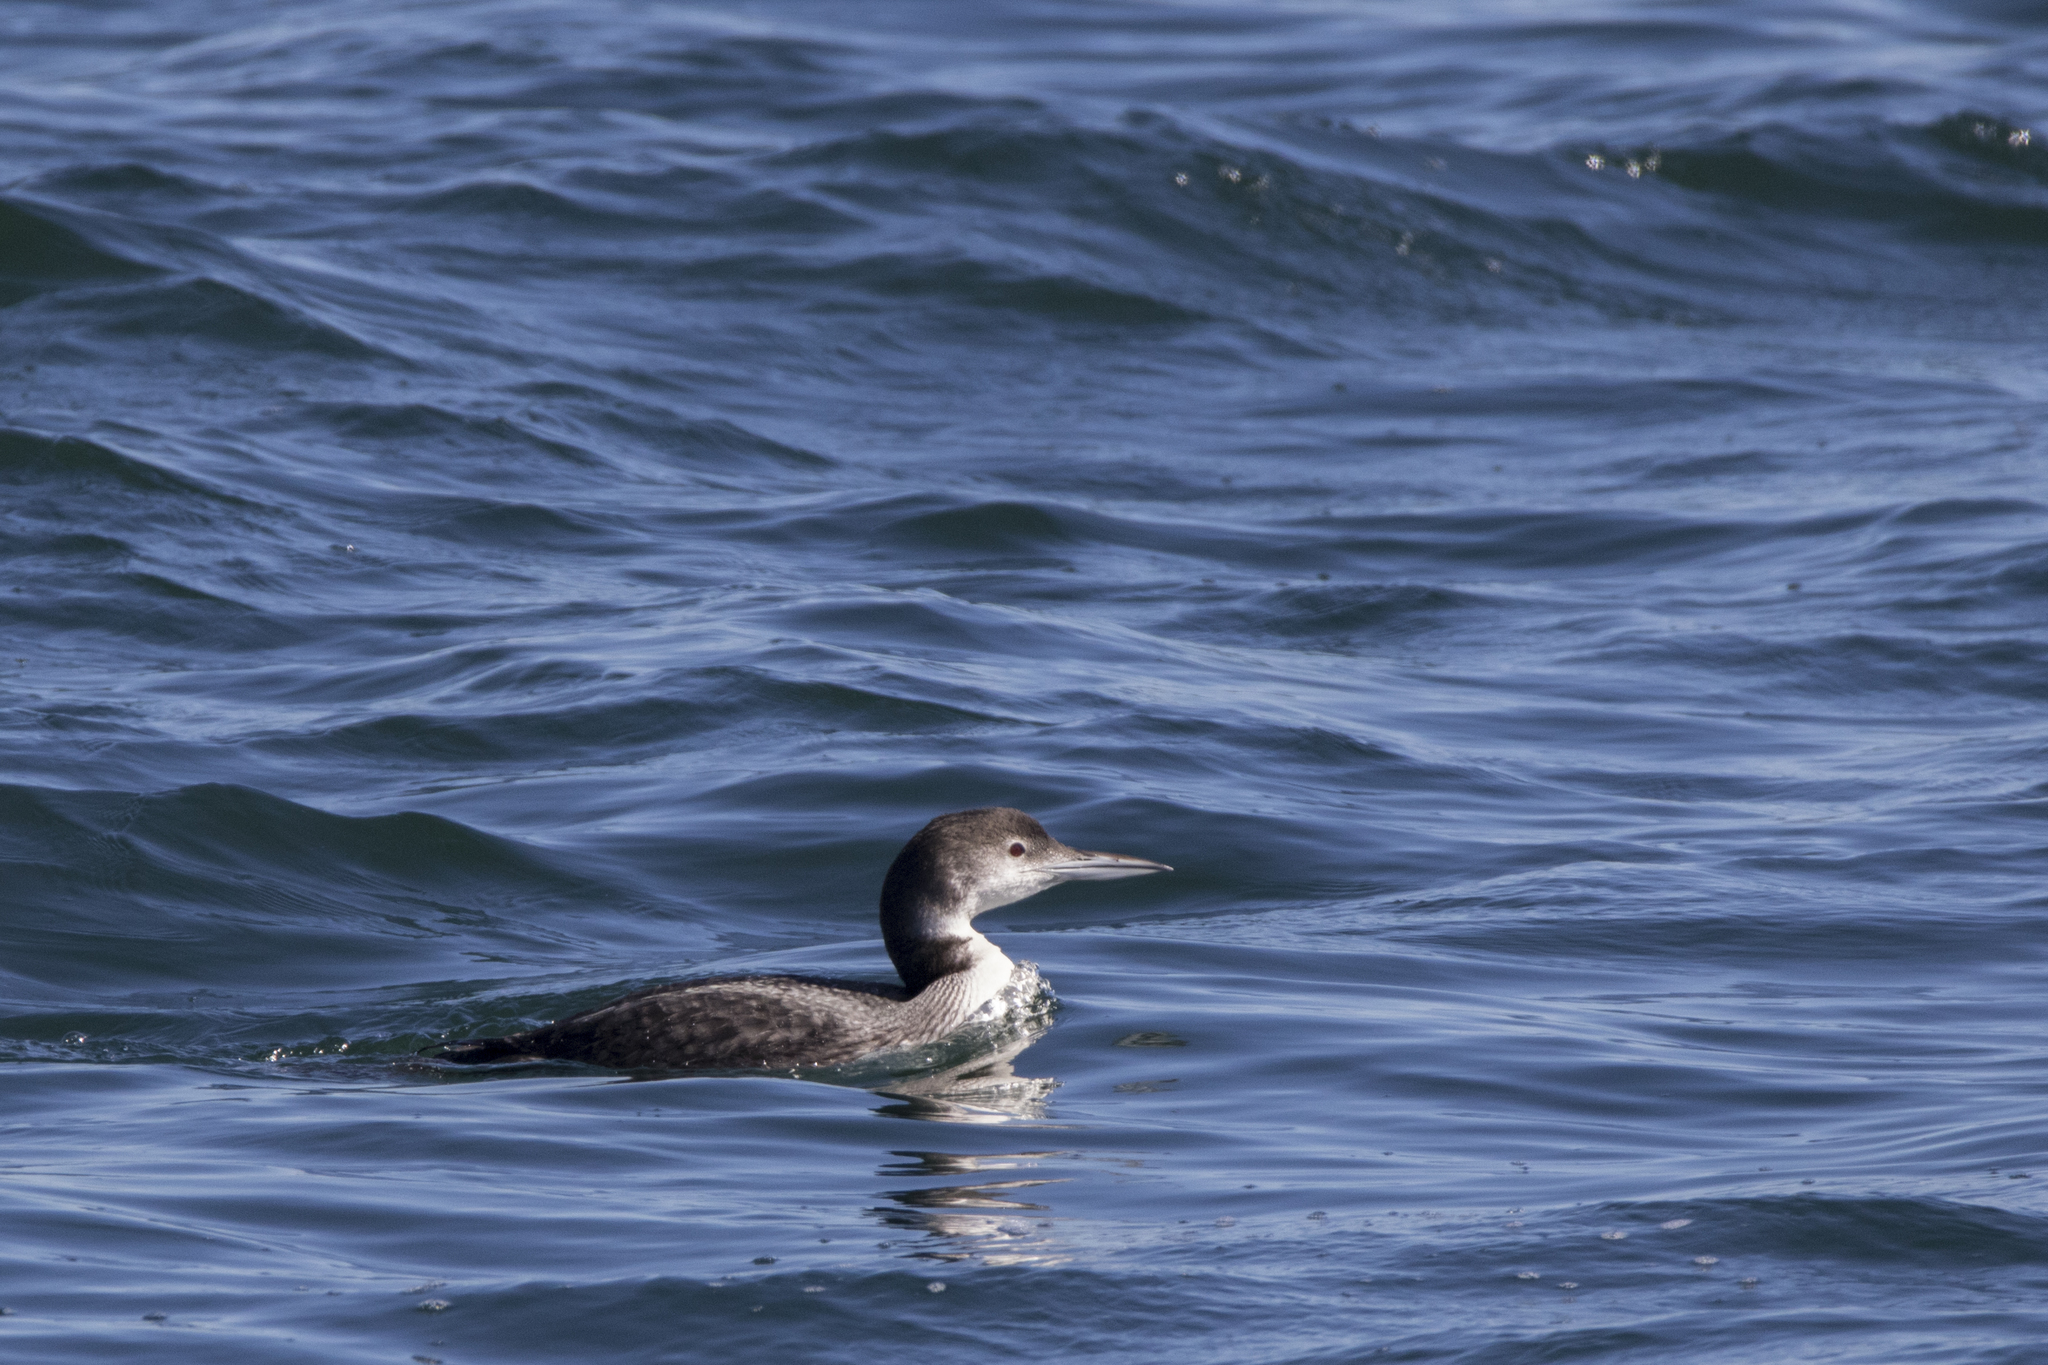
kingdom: Animalia
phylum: Chordata
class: Aves
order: Gaviiformes
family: Gaviidae
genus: Gavia
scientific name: Gavia immer
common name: Common loon
